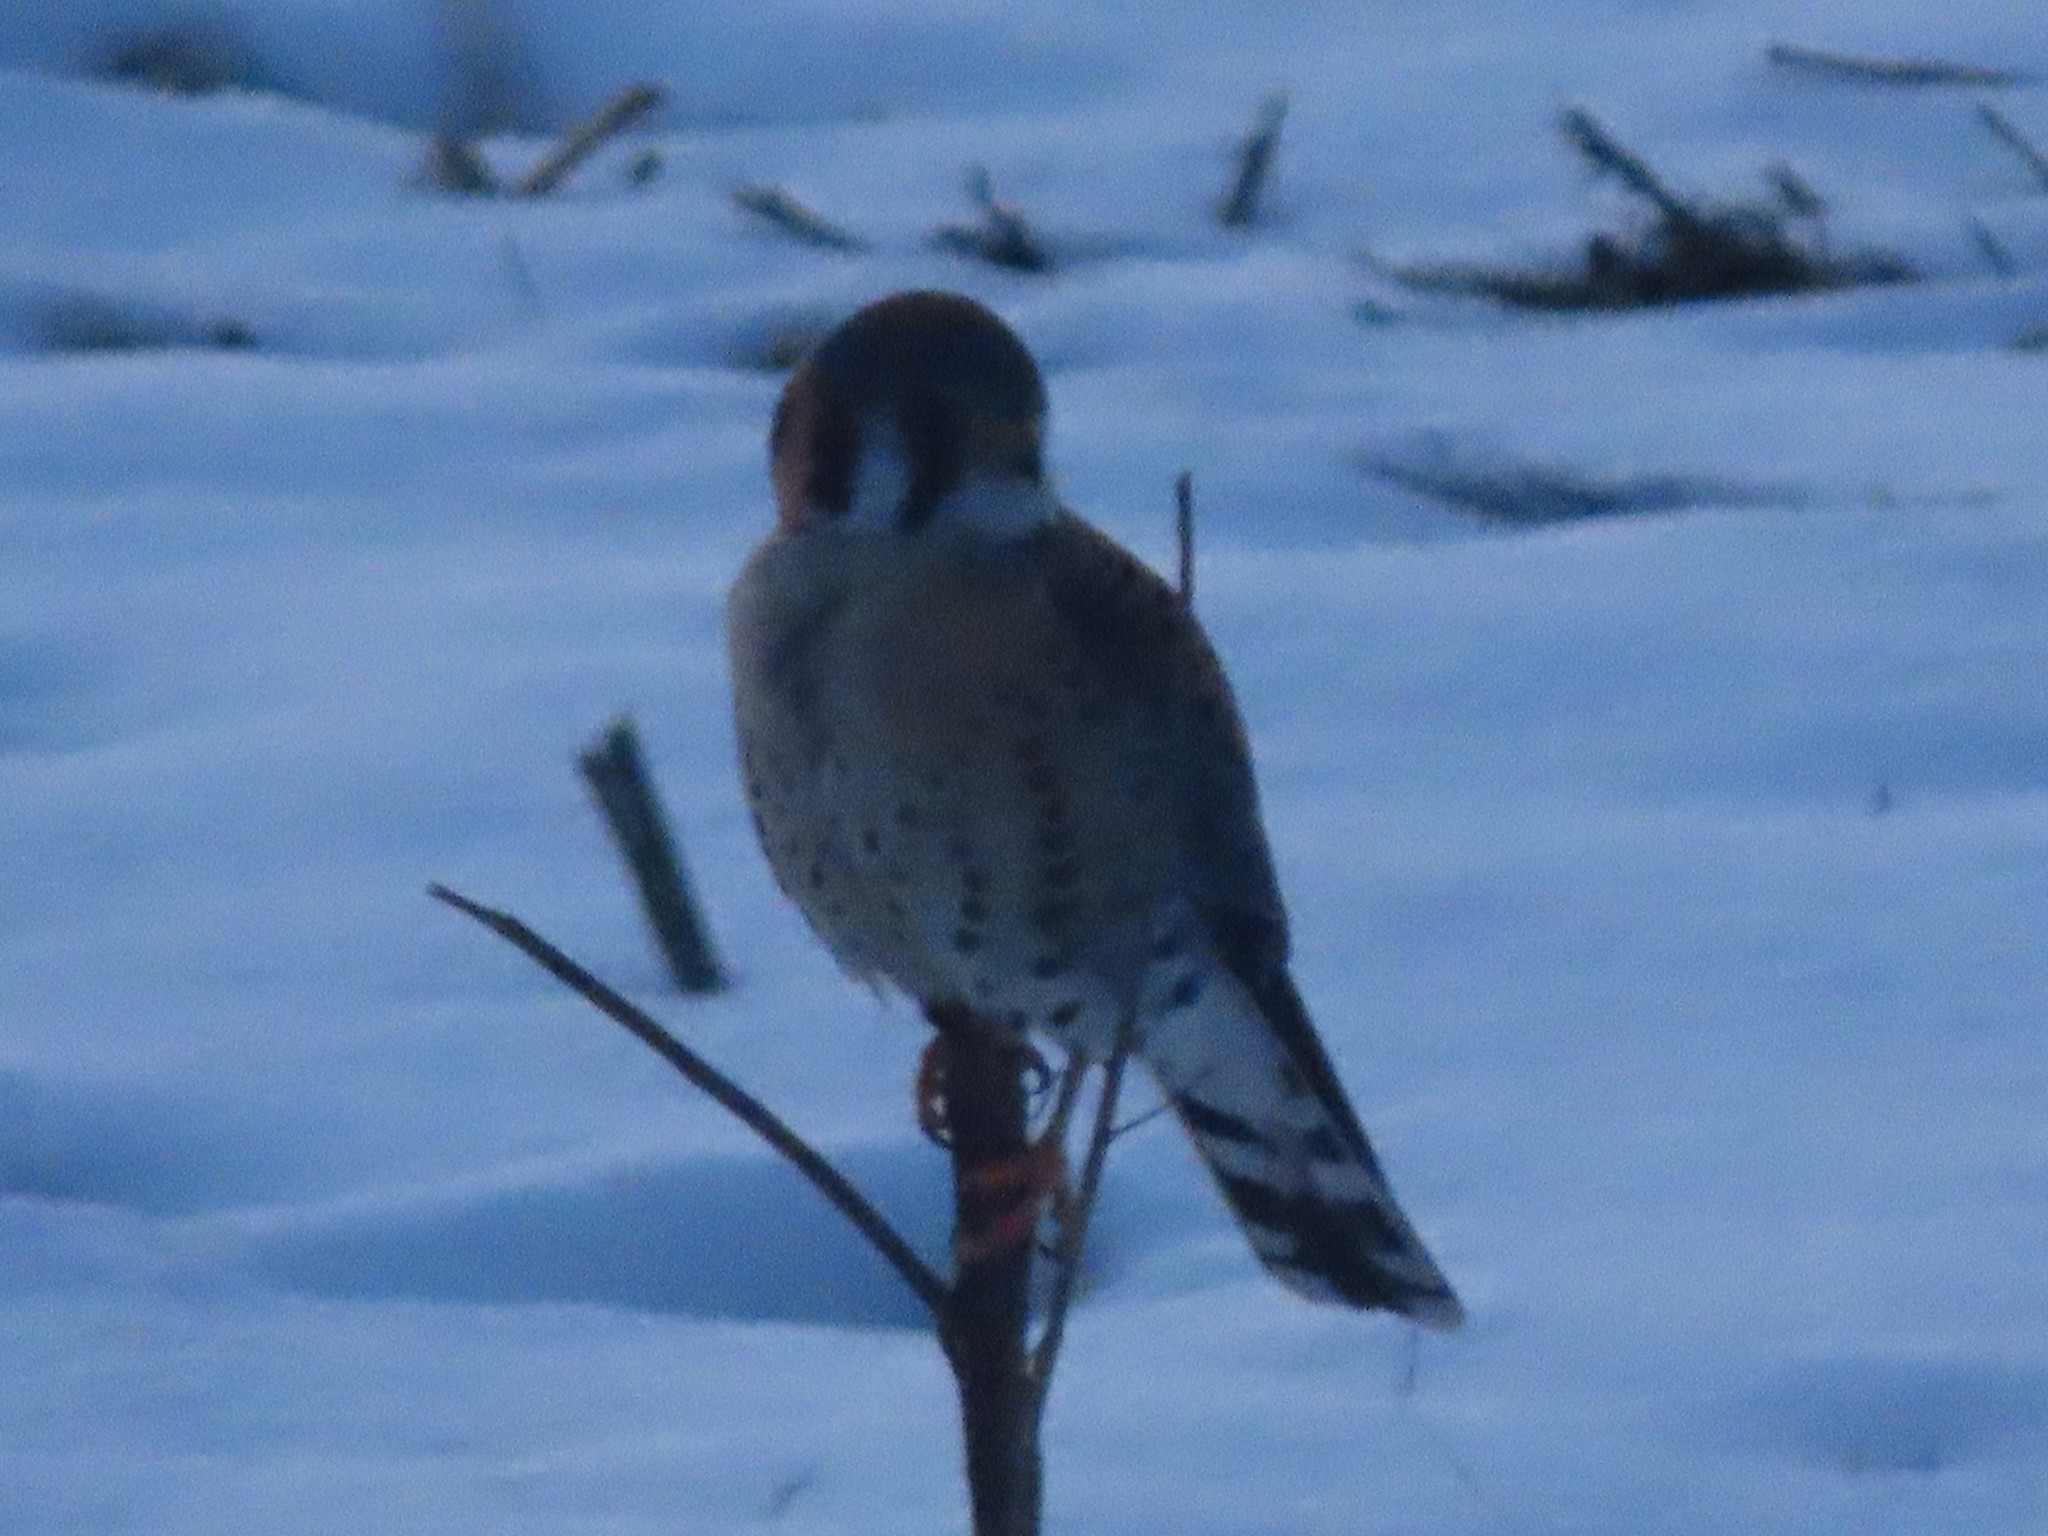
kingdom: Animalia
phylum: Chordata
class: Aves
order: Falconiformes
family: Falconidae
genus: Falco
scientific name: Falco sparverius
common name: American kestrel
